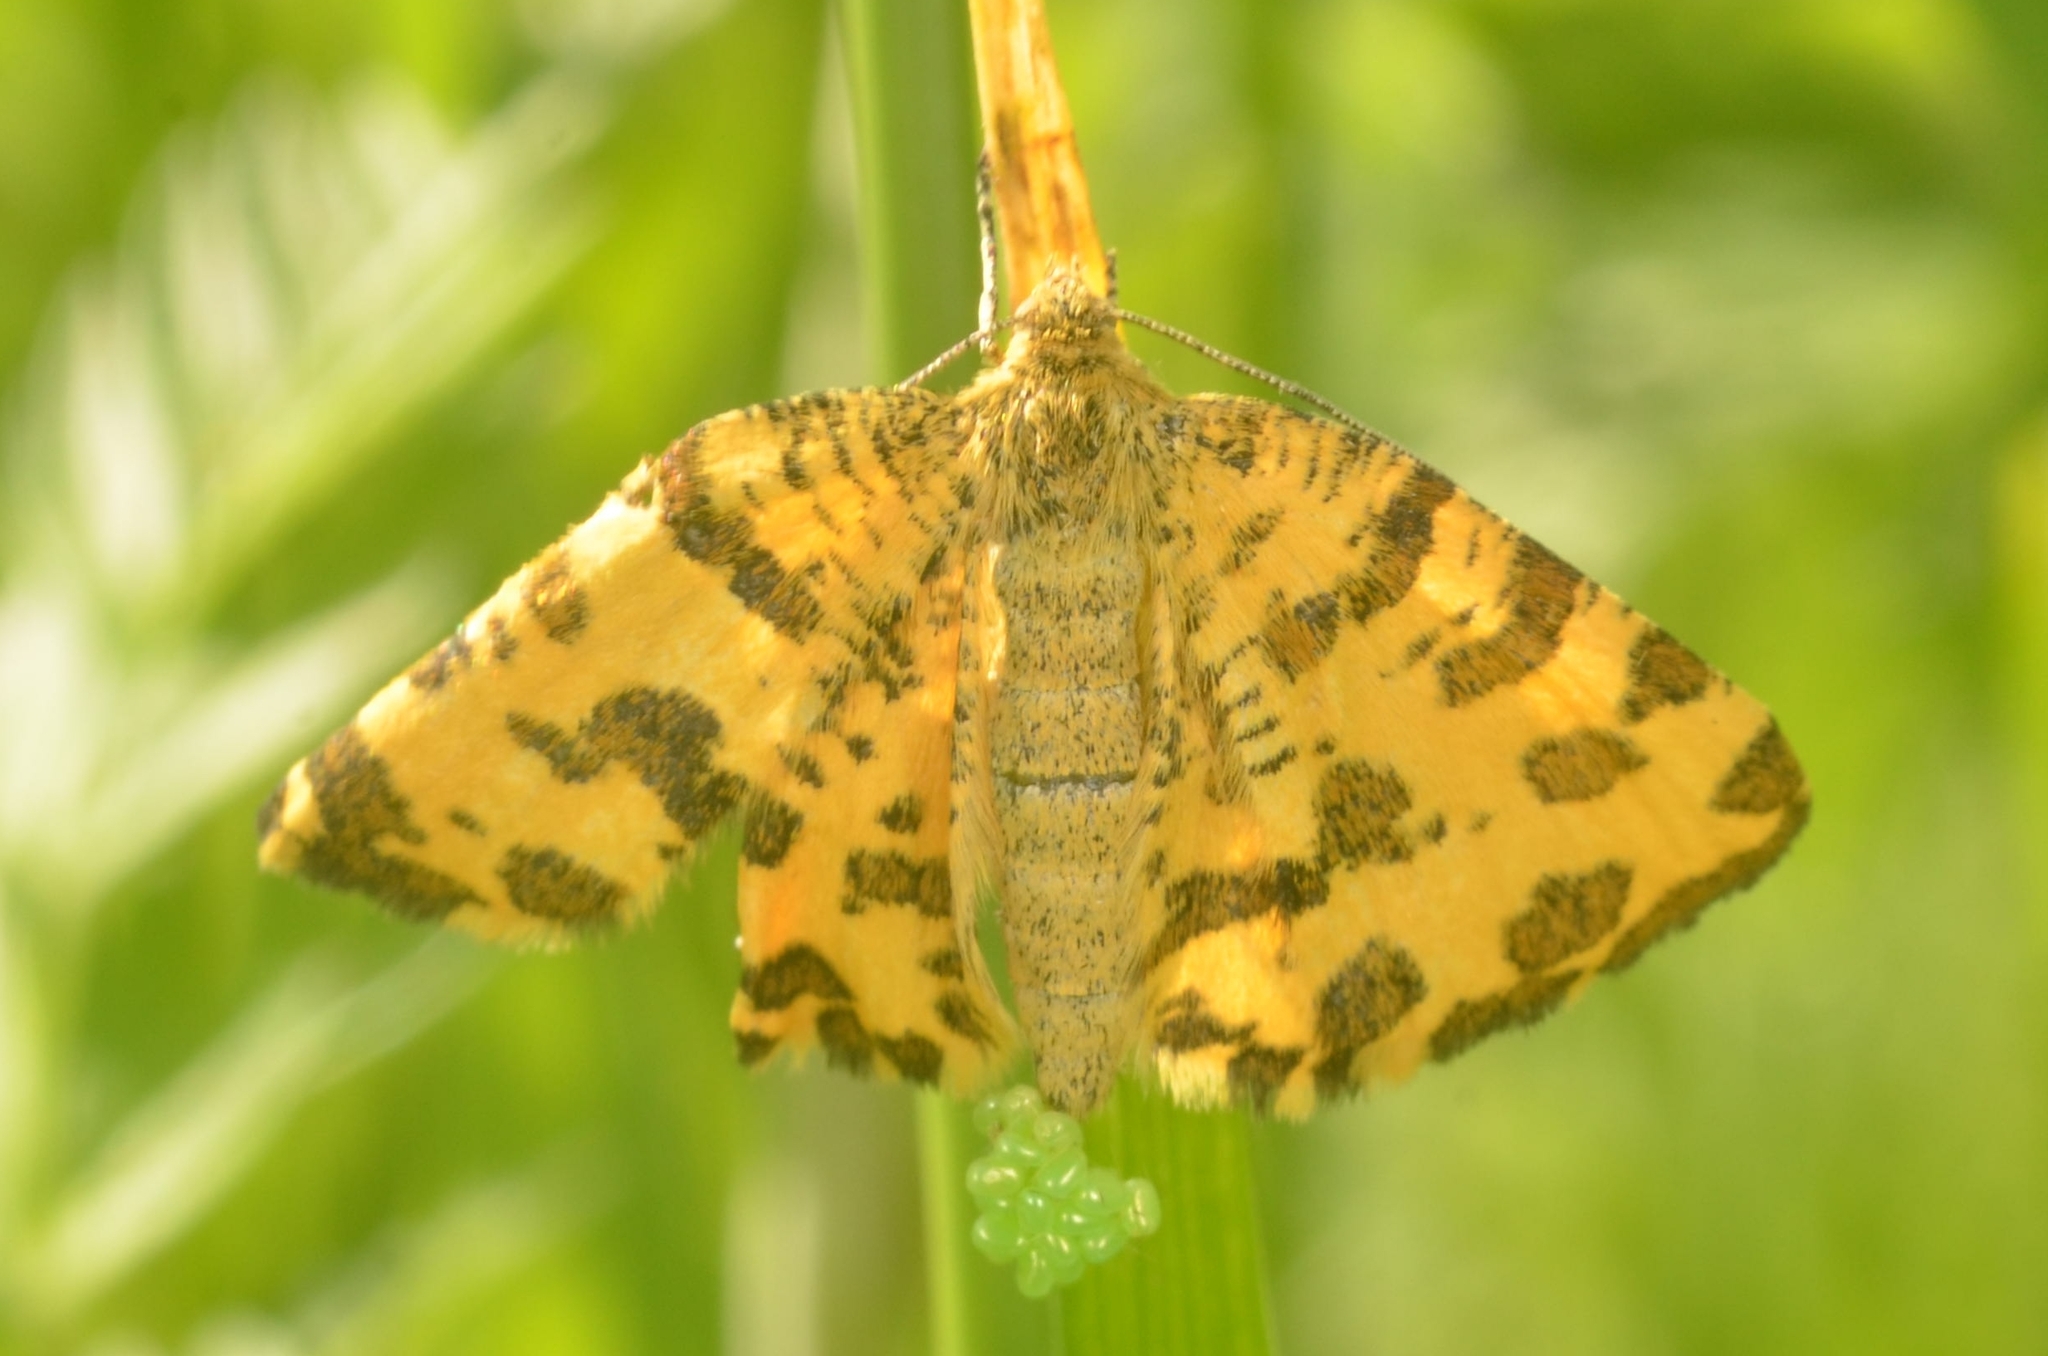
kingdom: Animalia
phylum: Arthropoda
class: Insecta
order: Lepidoptera
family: Geometridae
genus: Pseudopanthera
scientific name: Pseudopanthera macularia
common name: Speckled yellow
